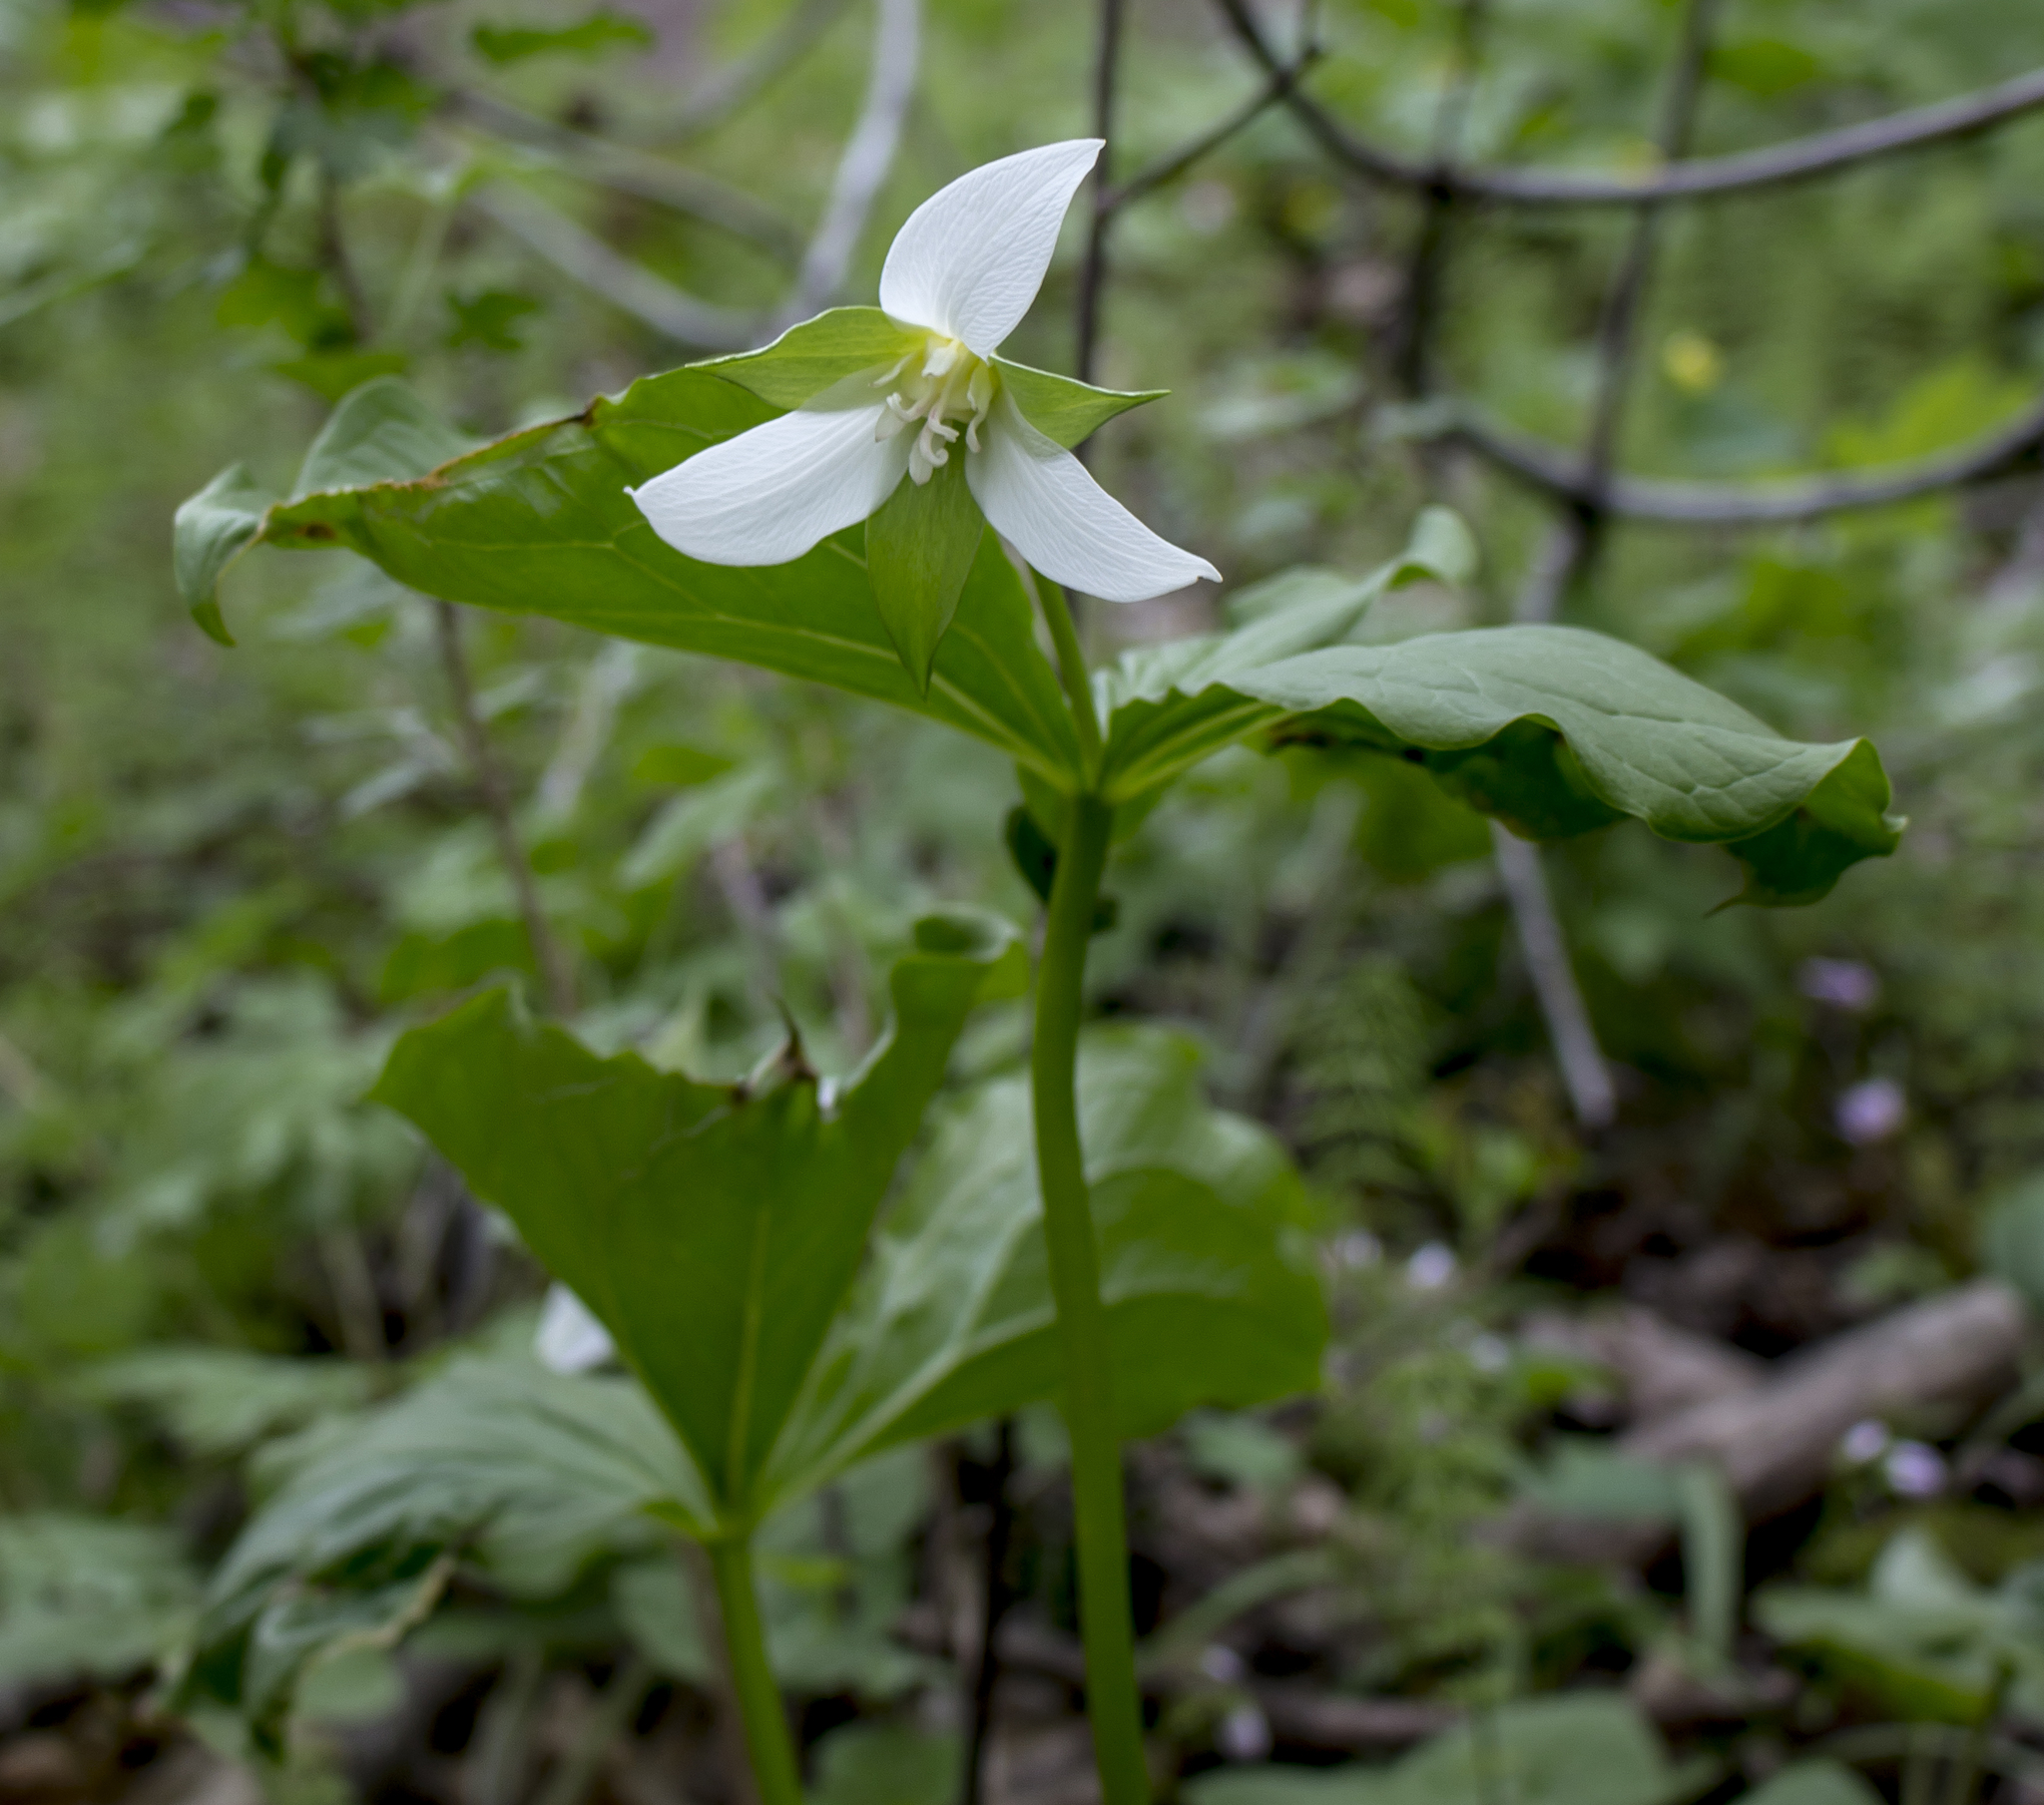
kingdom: Plantae
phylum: Tracheophyta
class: Liliopsida
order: Liliales
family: Melanthiaceae
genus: Trillium
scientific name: Trillium cernuum
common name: Nodding trillium
